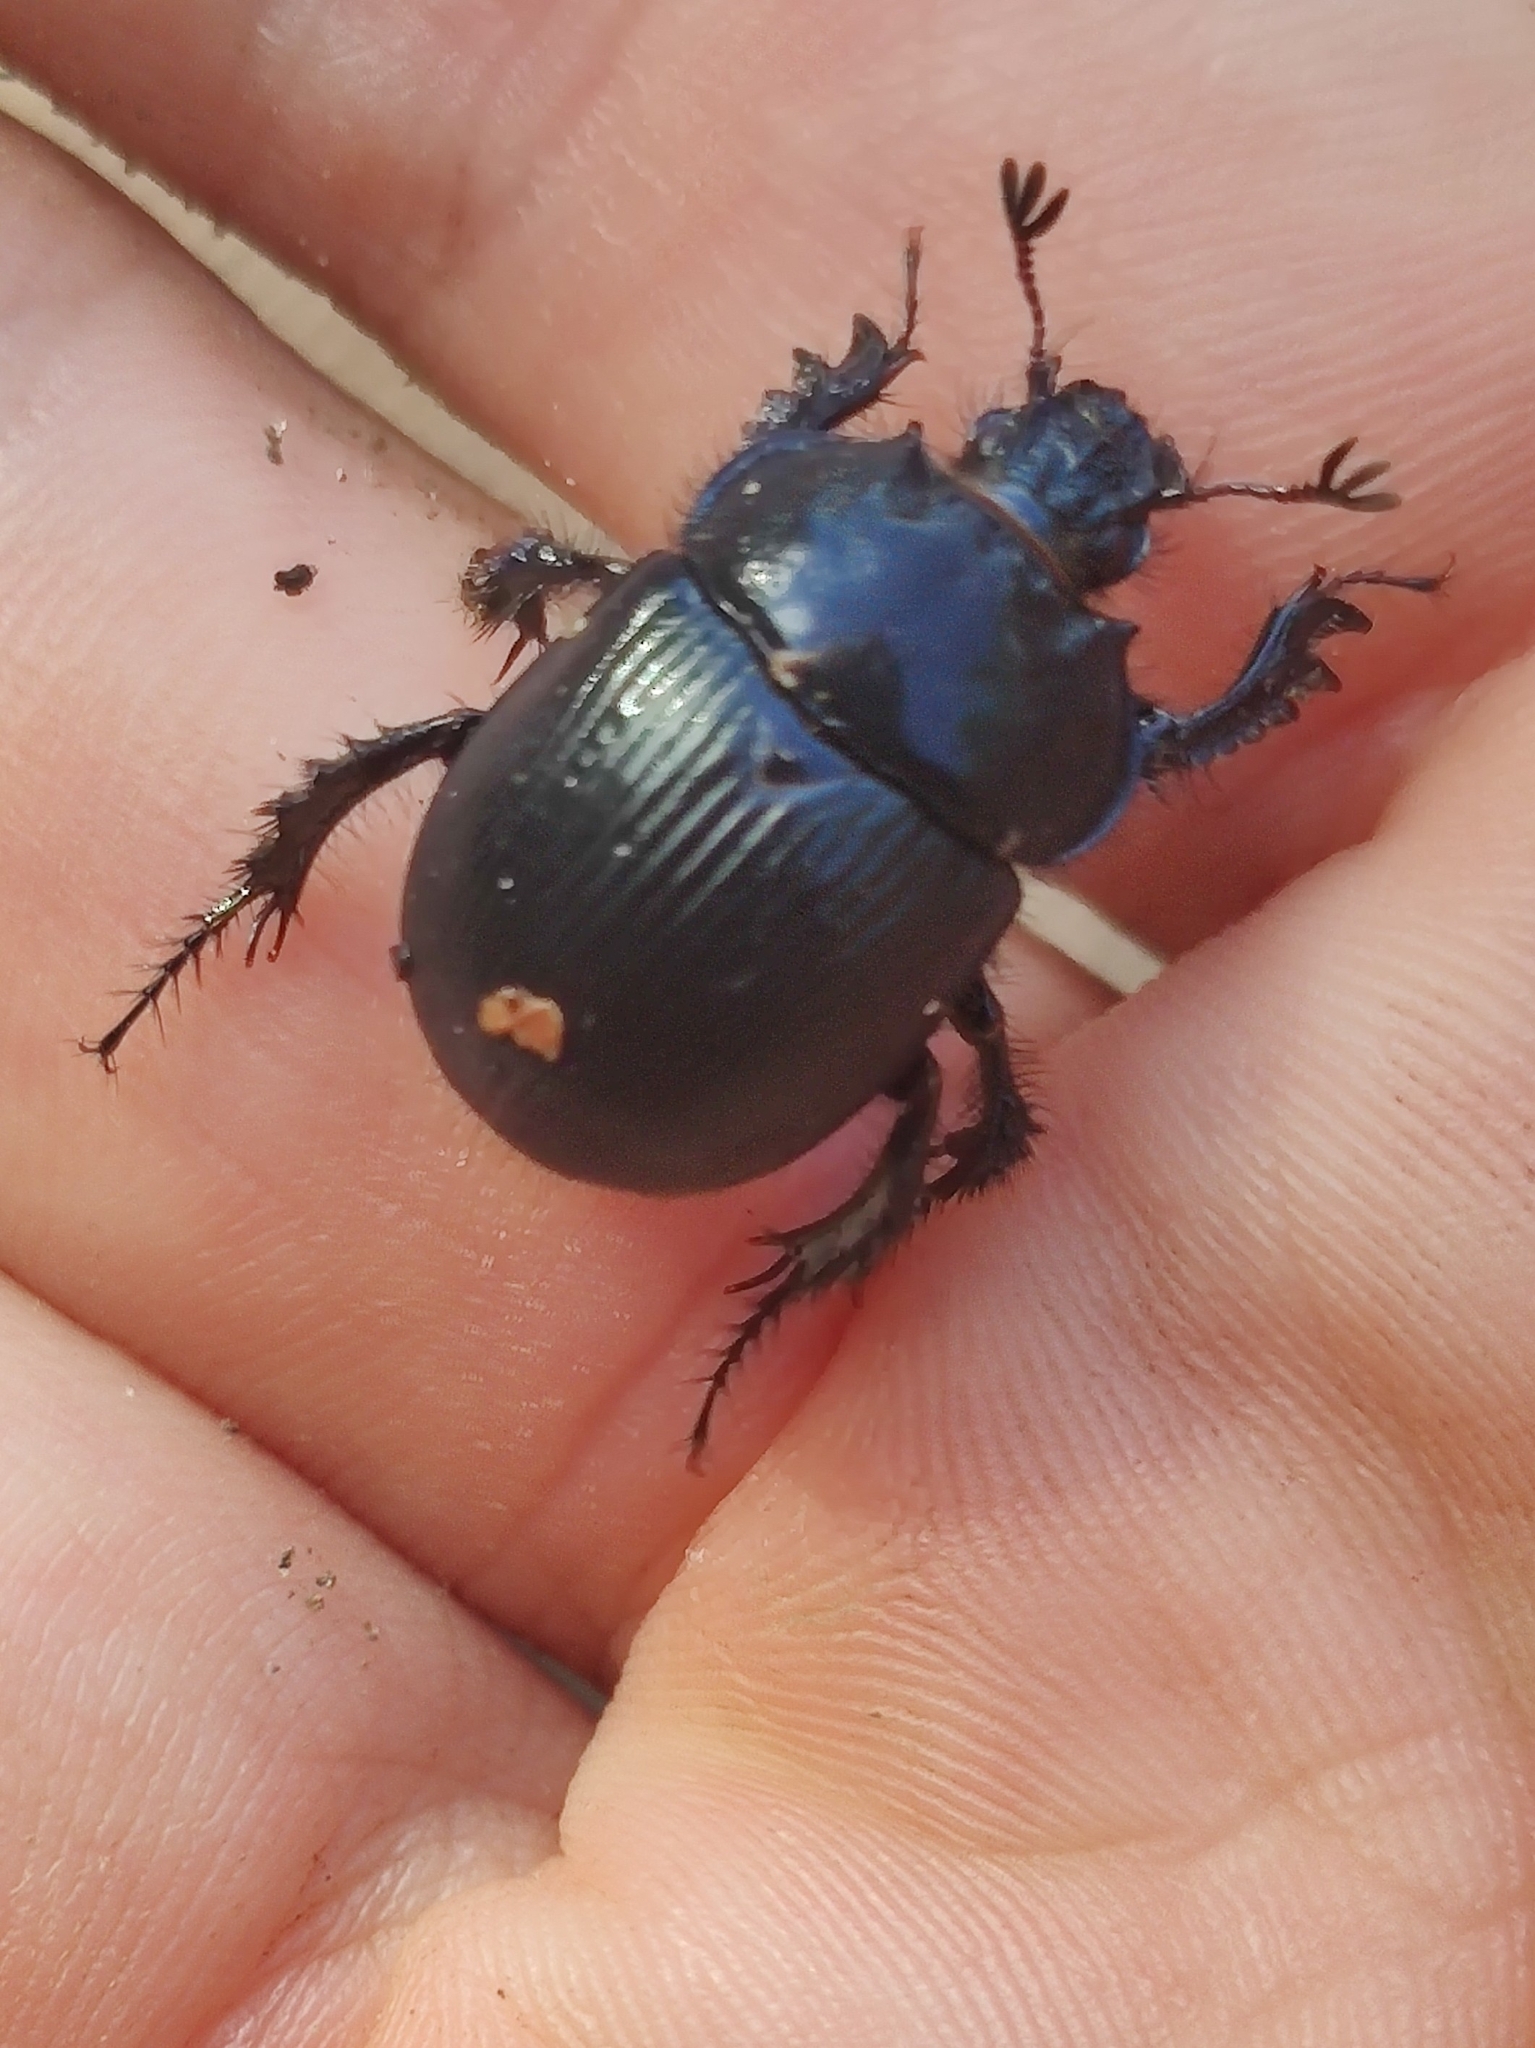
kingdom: Animalia
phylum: Arthropoda
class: Insecta
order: Coleoptera
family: Geotrupidae
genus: Typhaeus
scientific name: Typhaeus typhoeus
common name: Minotaur beetle
